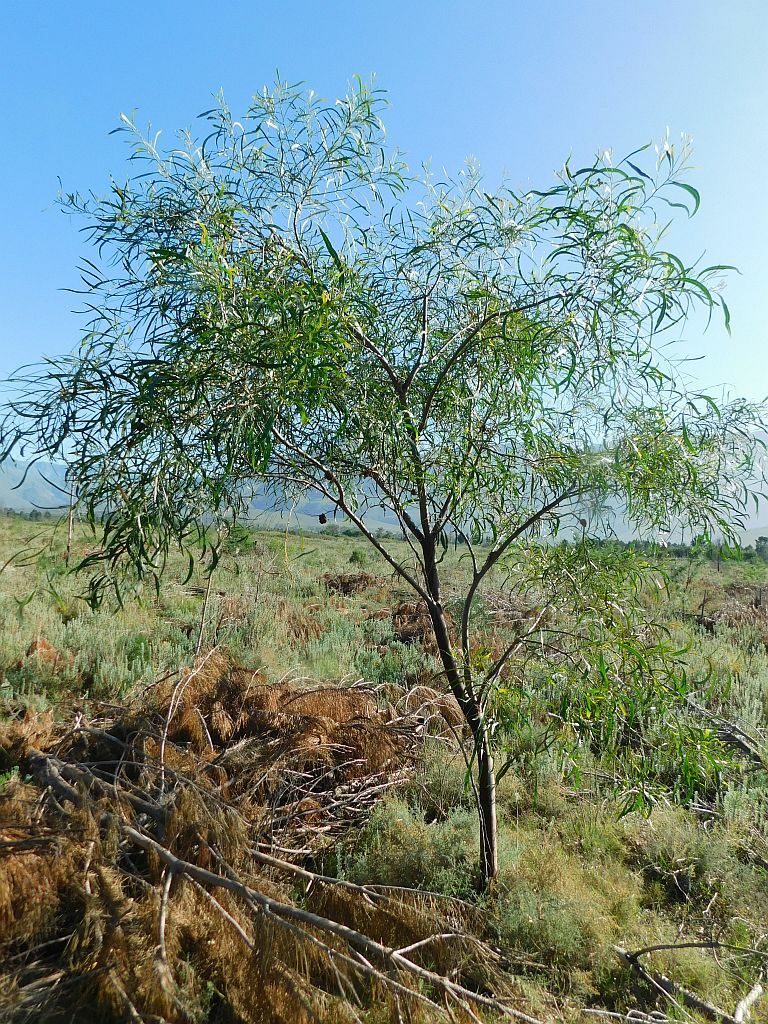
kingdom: Plantae
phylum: Tracheophyta
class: Magnoliopsida
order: Fabales
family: Fabaceae
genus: Acacia
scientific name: Acacia saligna
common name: Orange wattle
